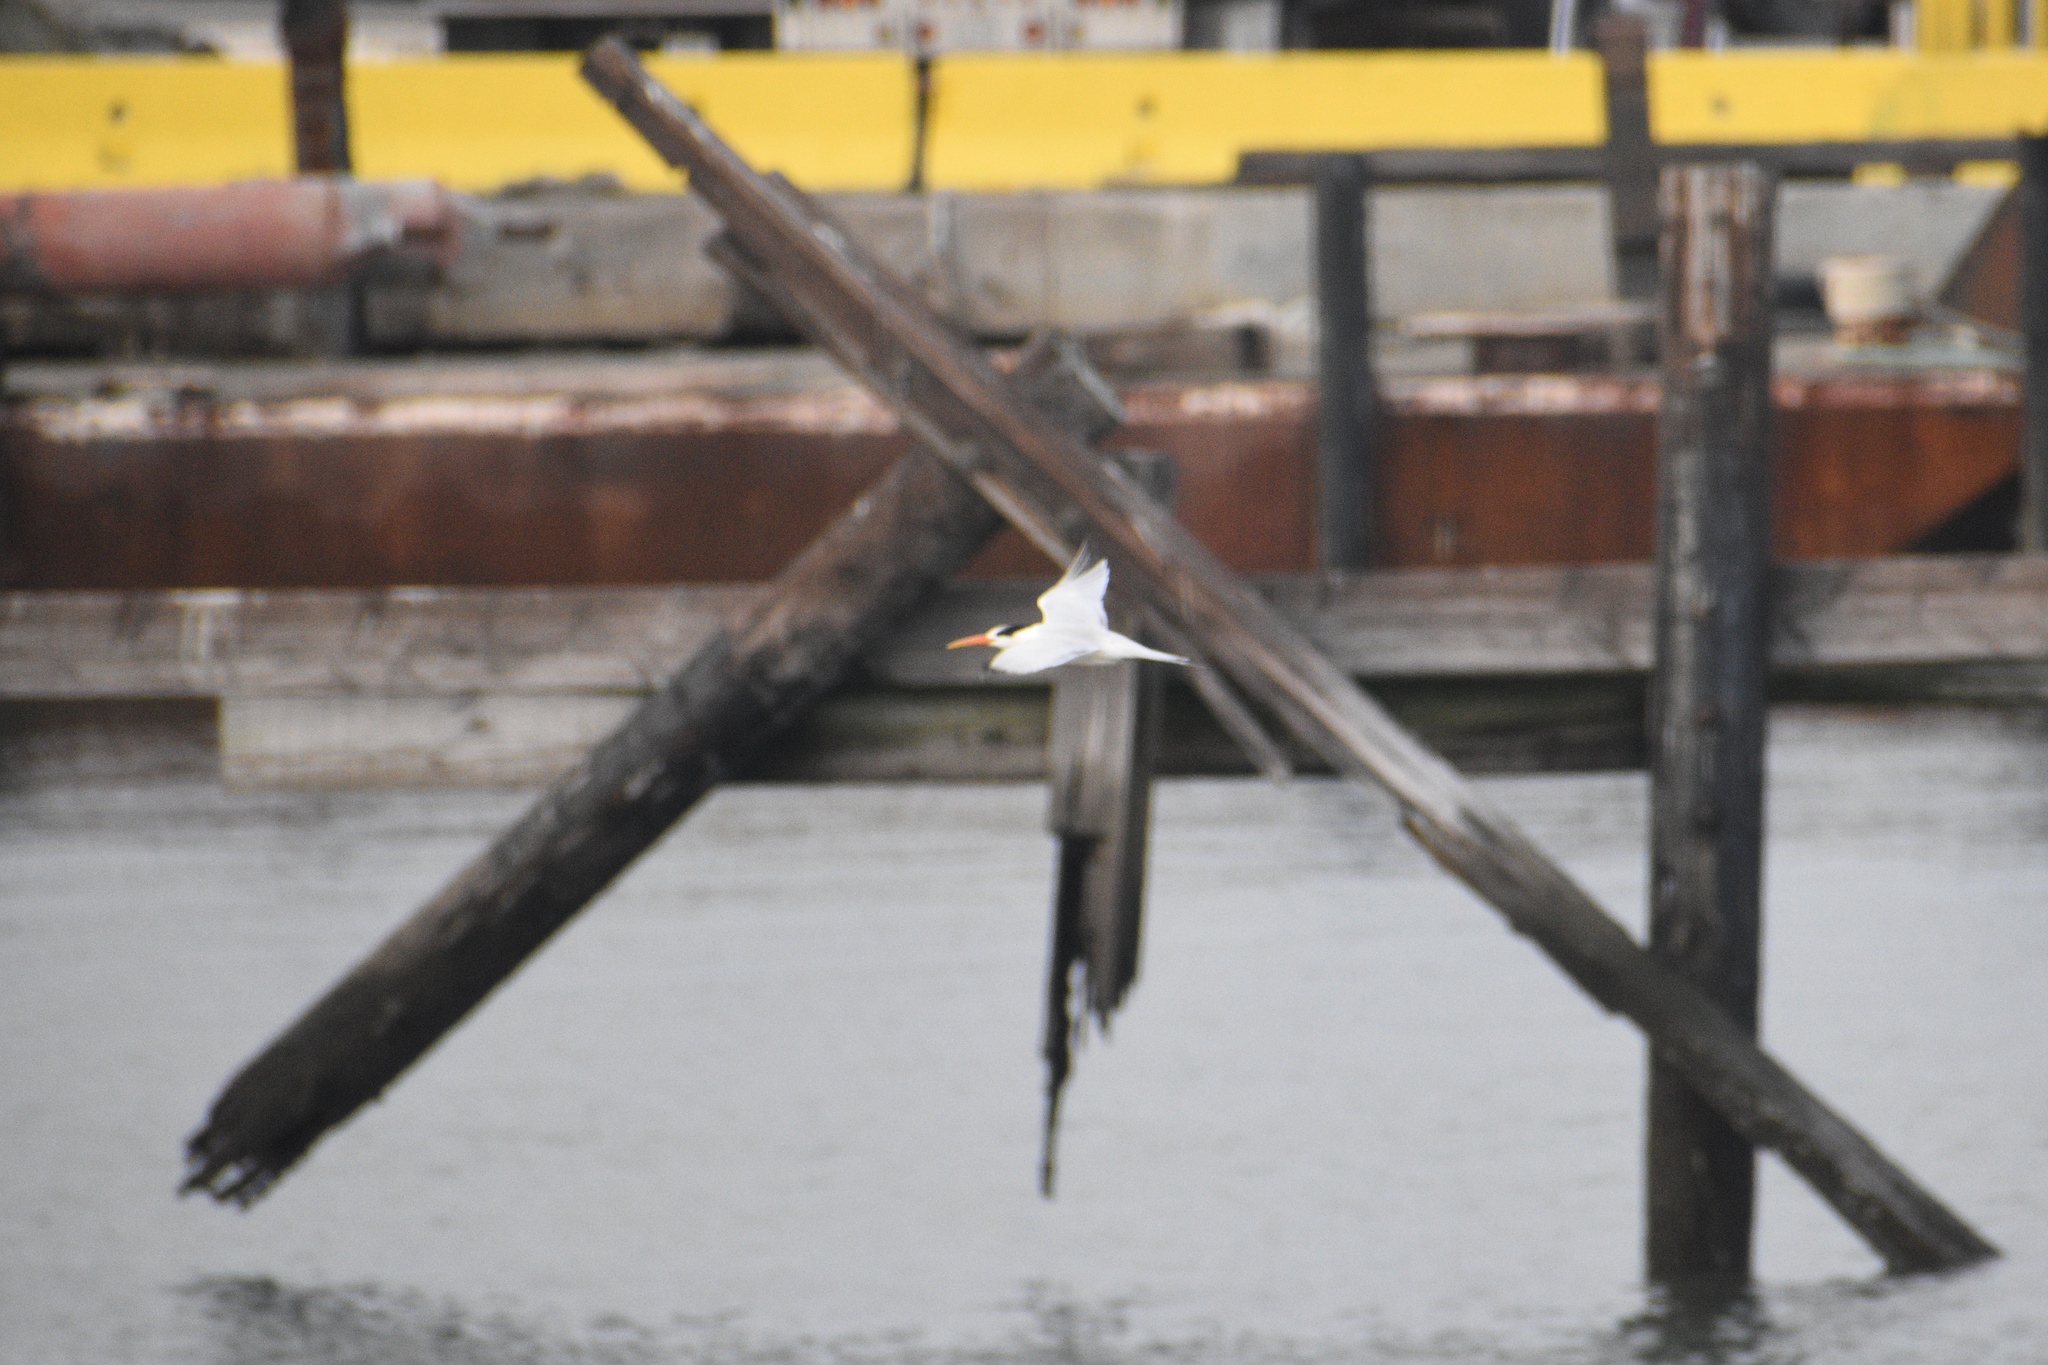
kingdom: Animalia
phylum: Chordata
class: Aves
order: Charadriiformes
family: Laridae
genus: Thalasseus
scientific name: Thalasseus elegans
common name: Elegant tern
